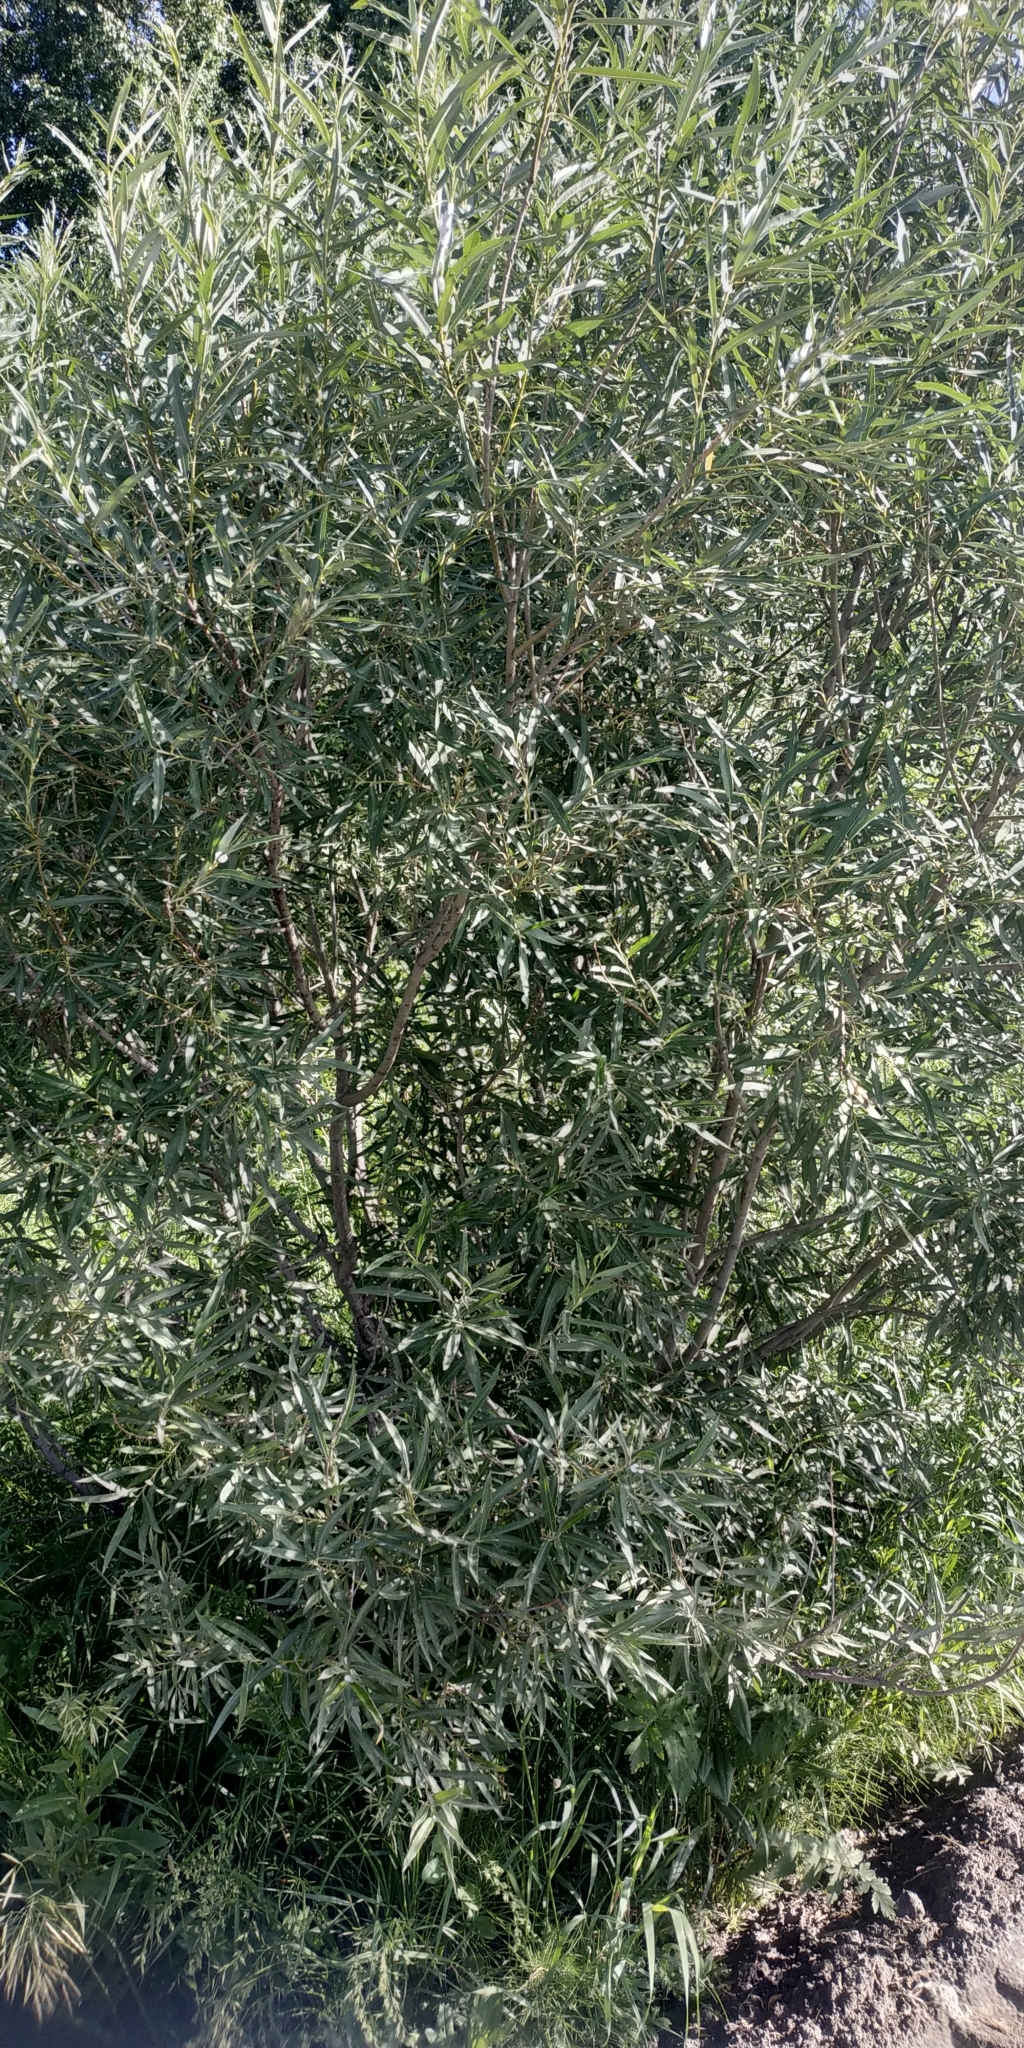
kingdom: Plantae
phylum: Tracheophyta
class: Magnoliopsida
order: Malpighiales
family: Salicaceae
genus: Salix
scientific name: Salix viminalis
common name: Osier
